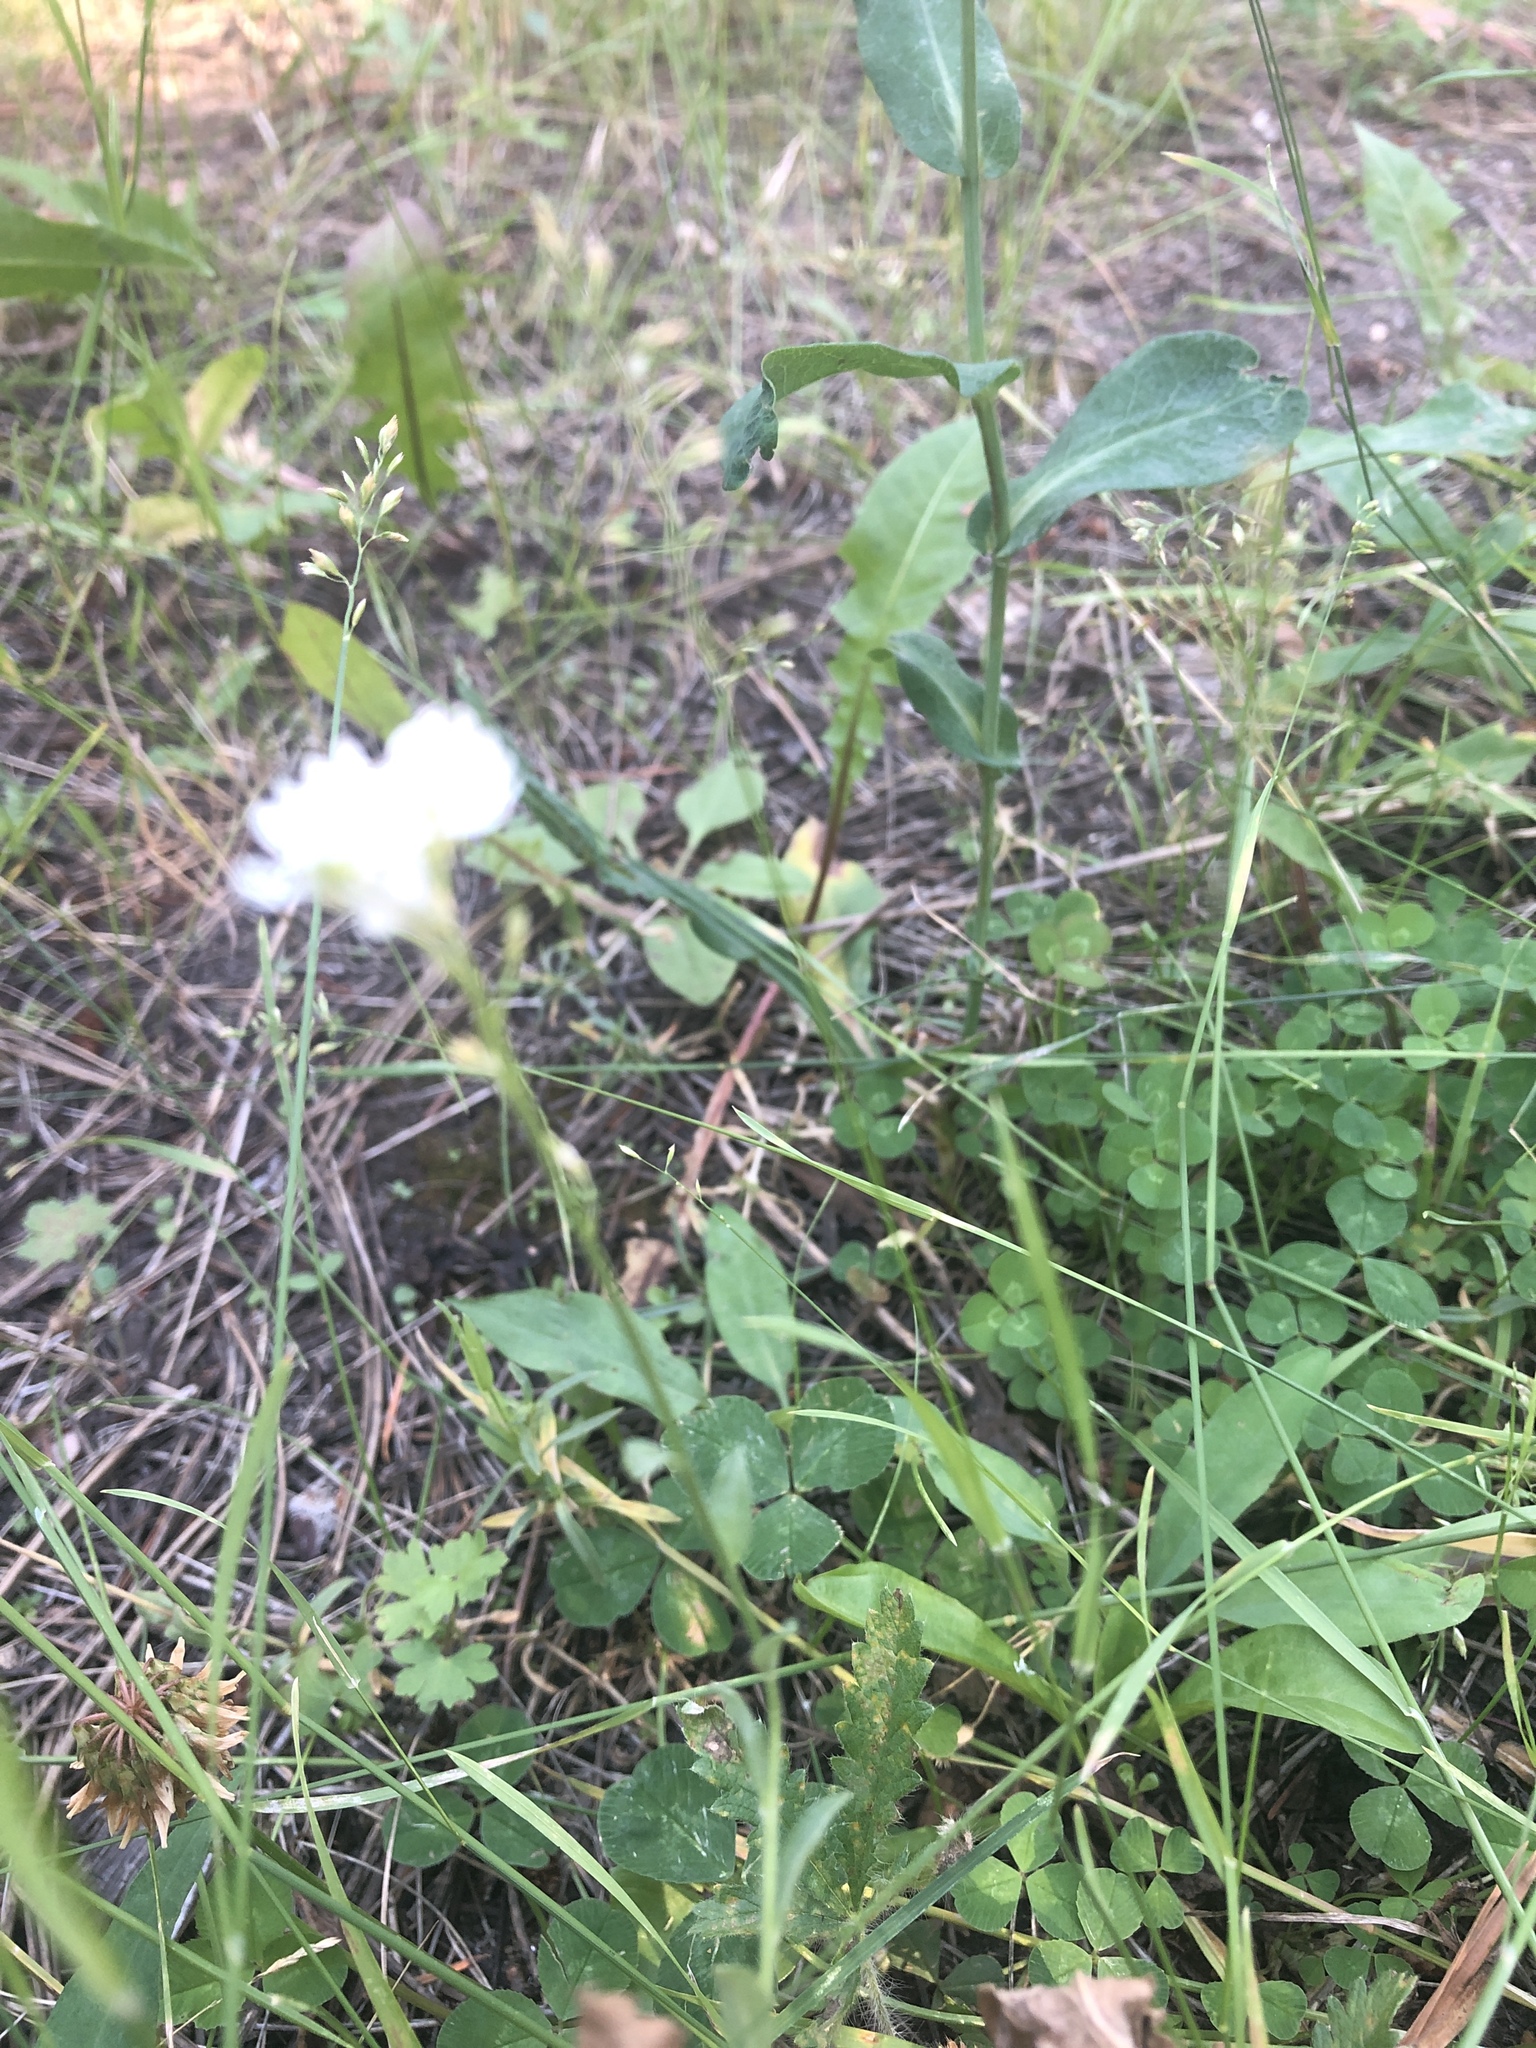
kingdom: Plantae
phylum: Tracheophyta
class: Magnoliopsida
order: Brassicales
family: Brassicaceae
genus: Berteroa
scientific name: Berteroa incana
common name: Hoary alison
